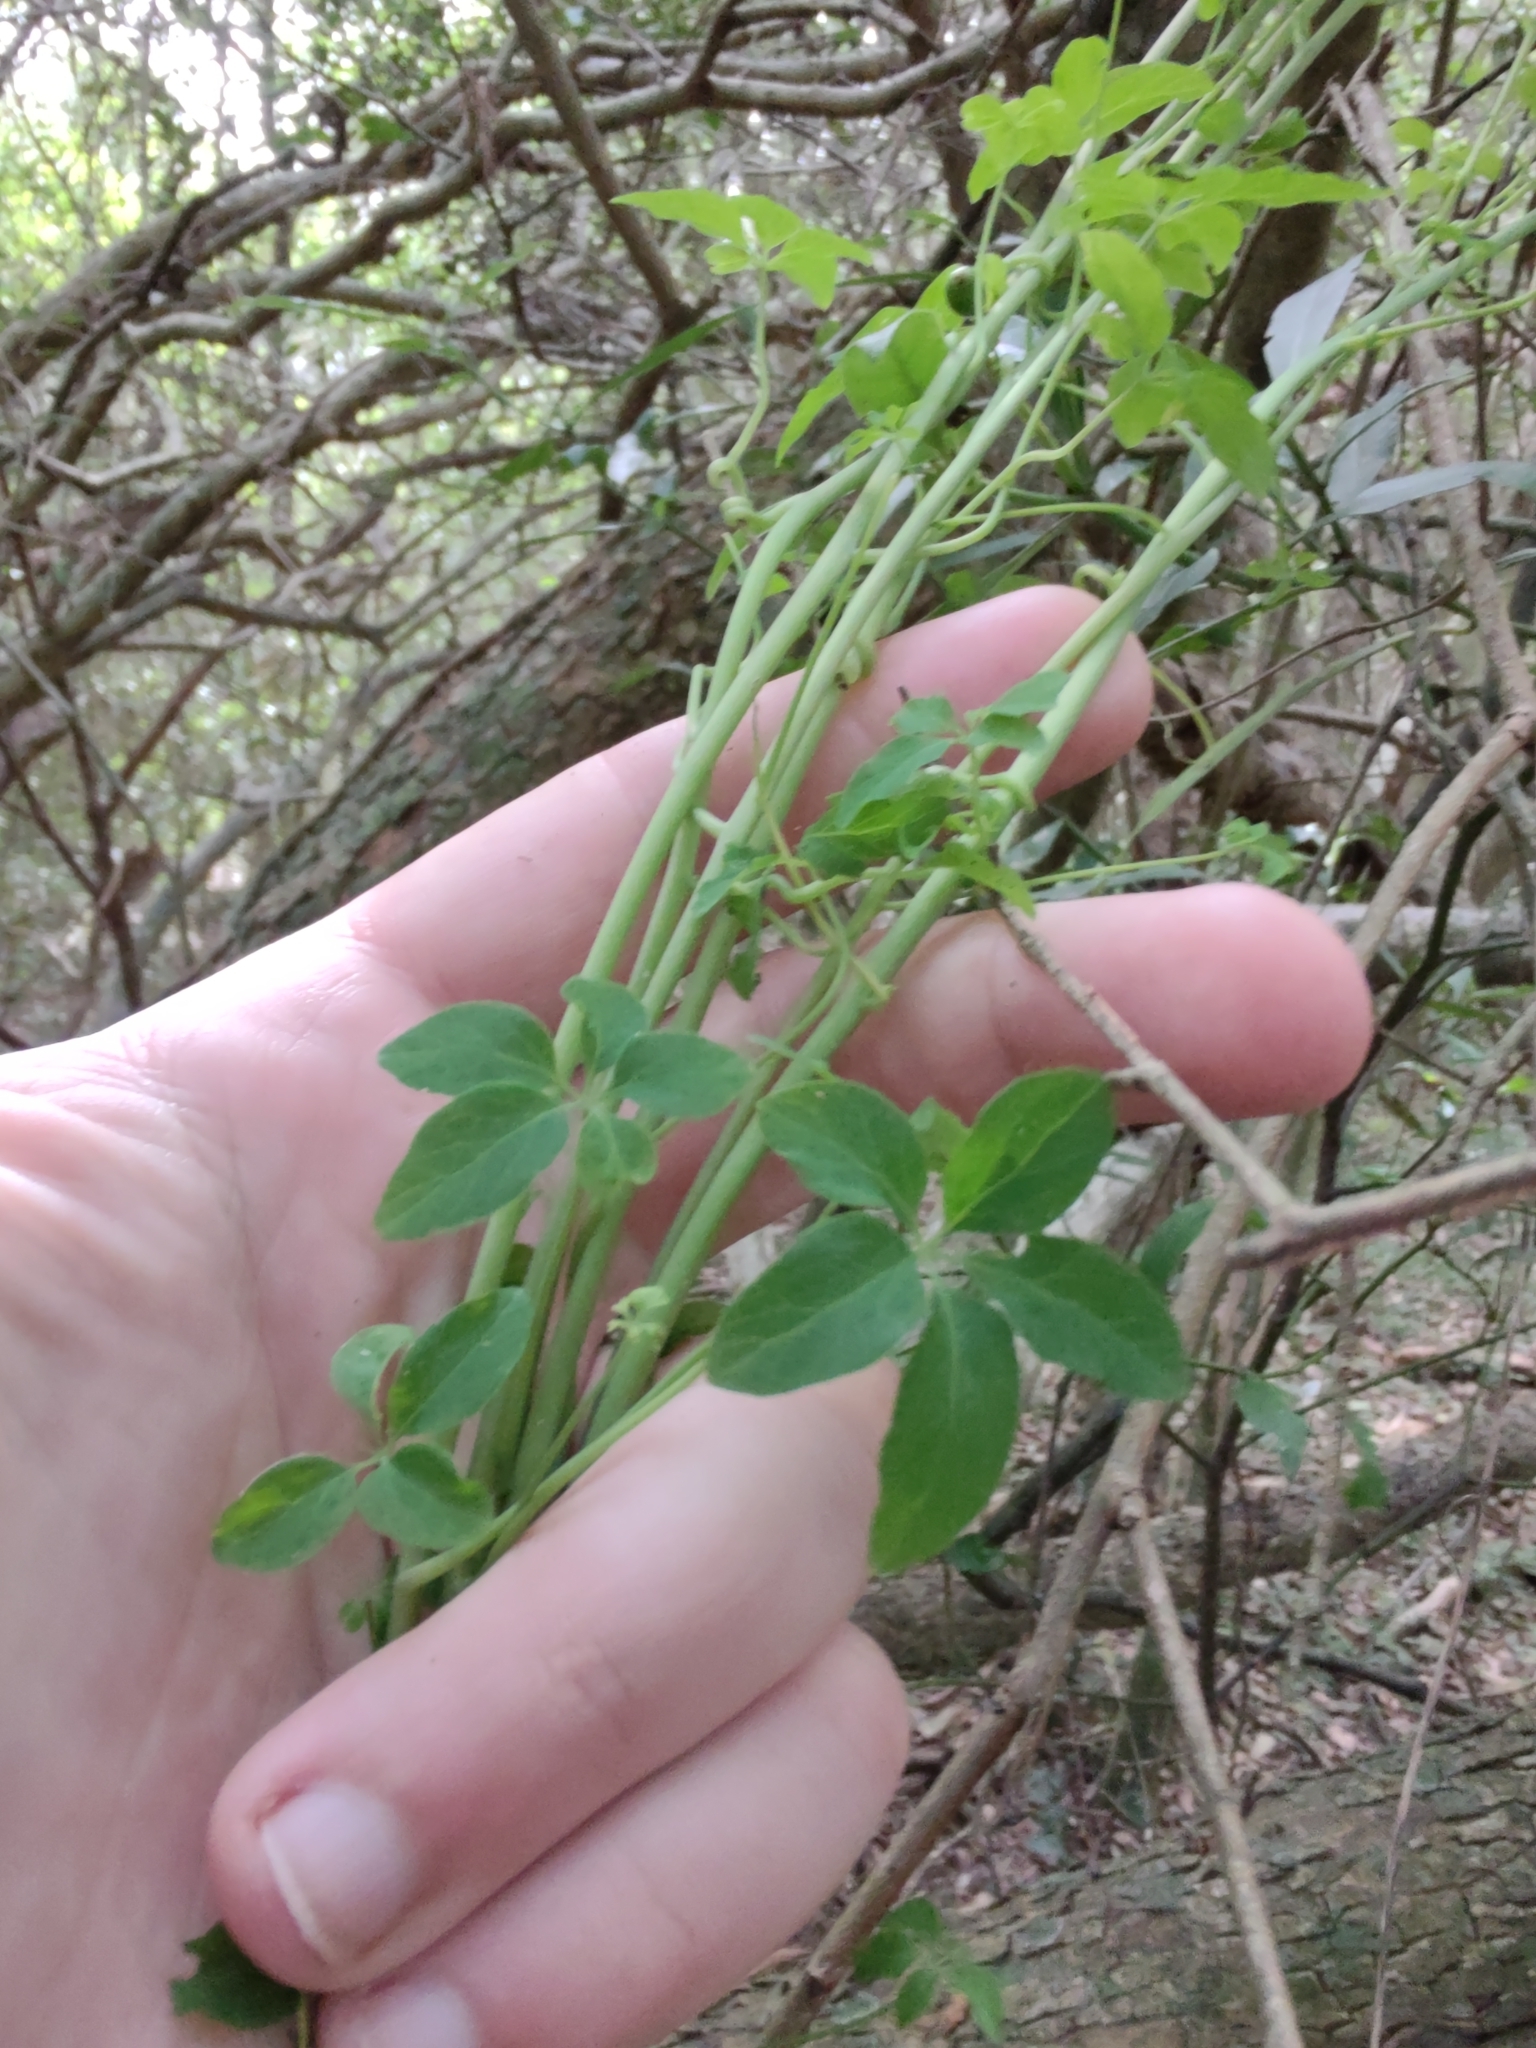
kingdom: Plantae
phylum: Tracheophyta
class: Magnoliopsida
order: Brassicales
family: Tropaeolaceae
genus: Tropaeolum
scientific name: Tropaeolum pentaphyllum
